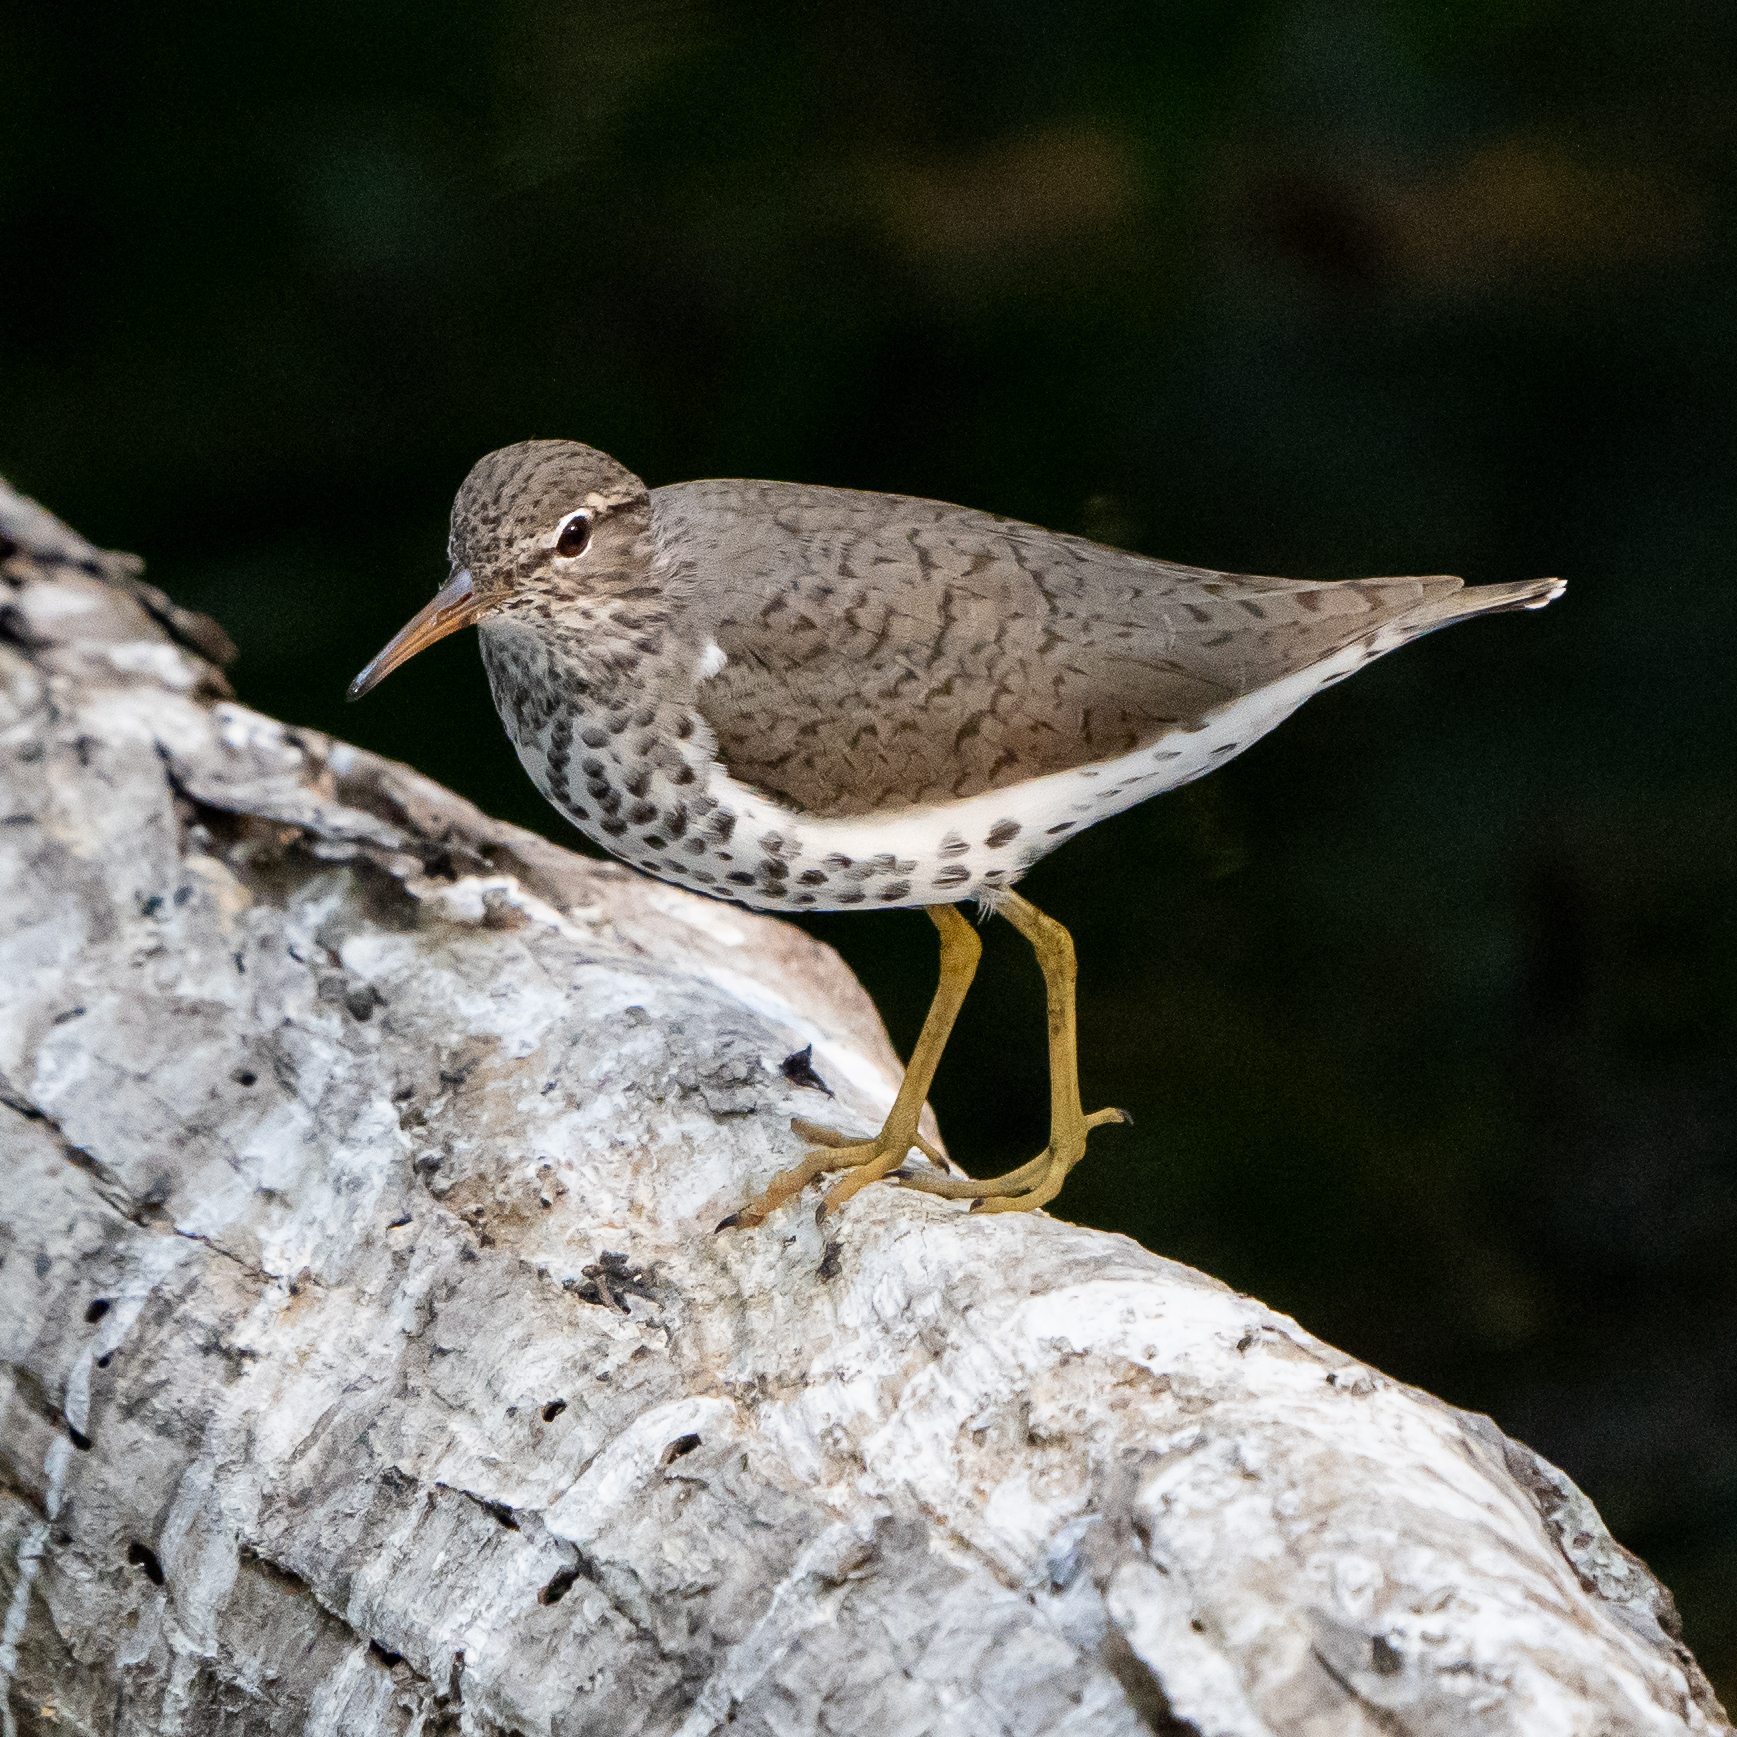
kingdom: Animalia
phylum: Chordata
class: Aves
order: Charadriiformes
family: Scolopacidae
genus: Actitis
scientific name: Actitis macularius
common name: Spotted sandpiper
